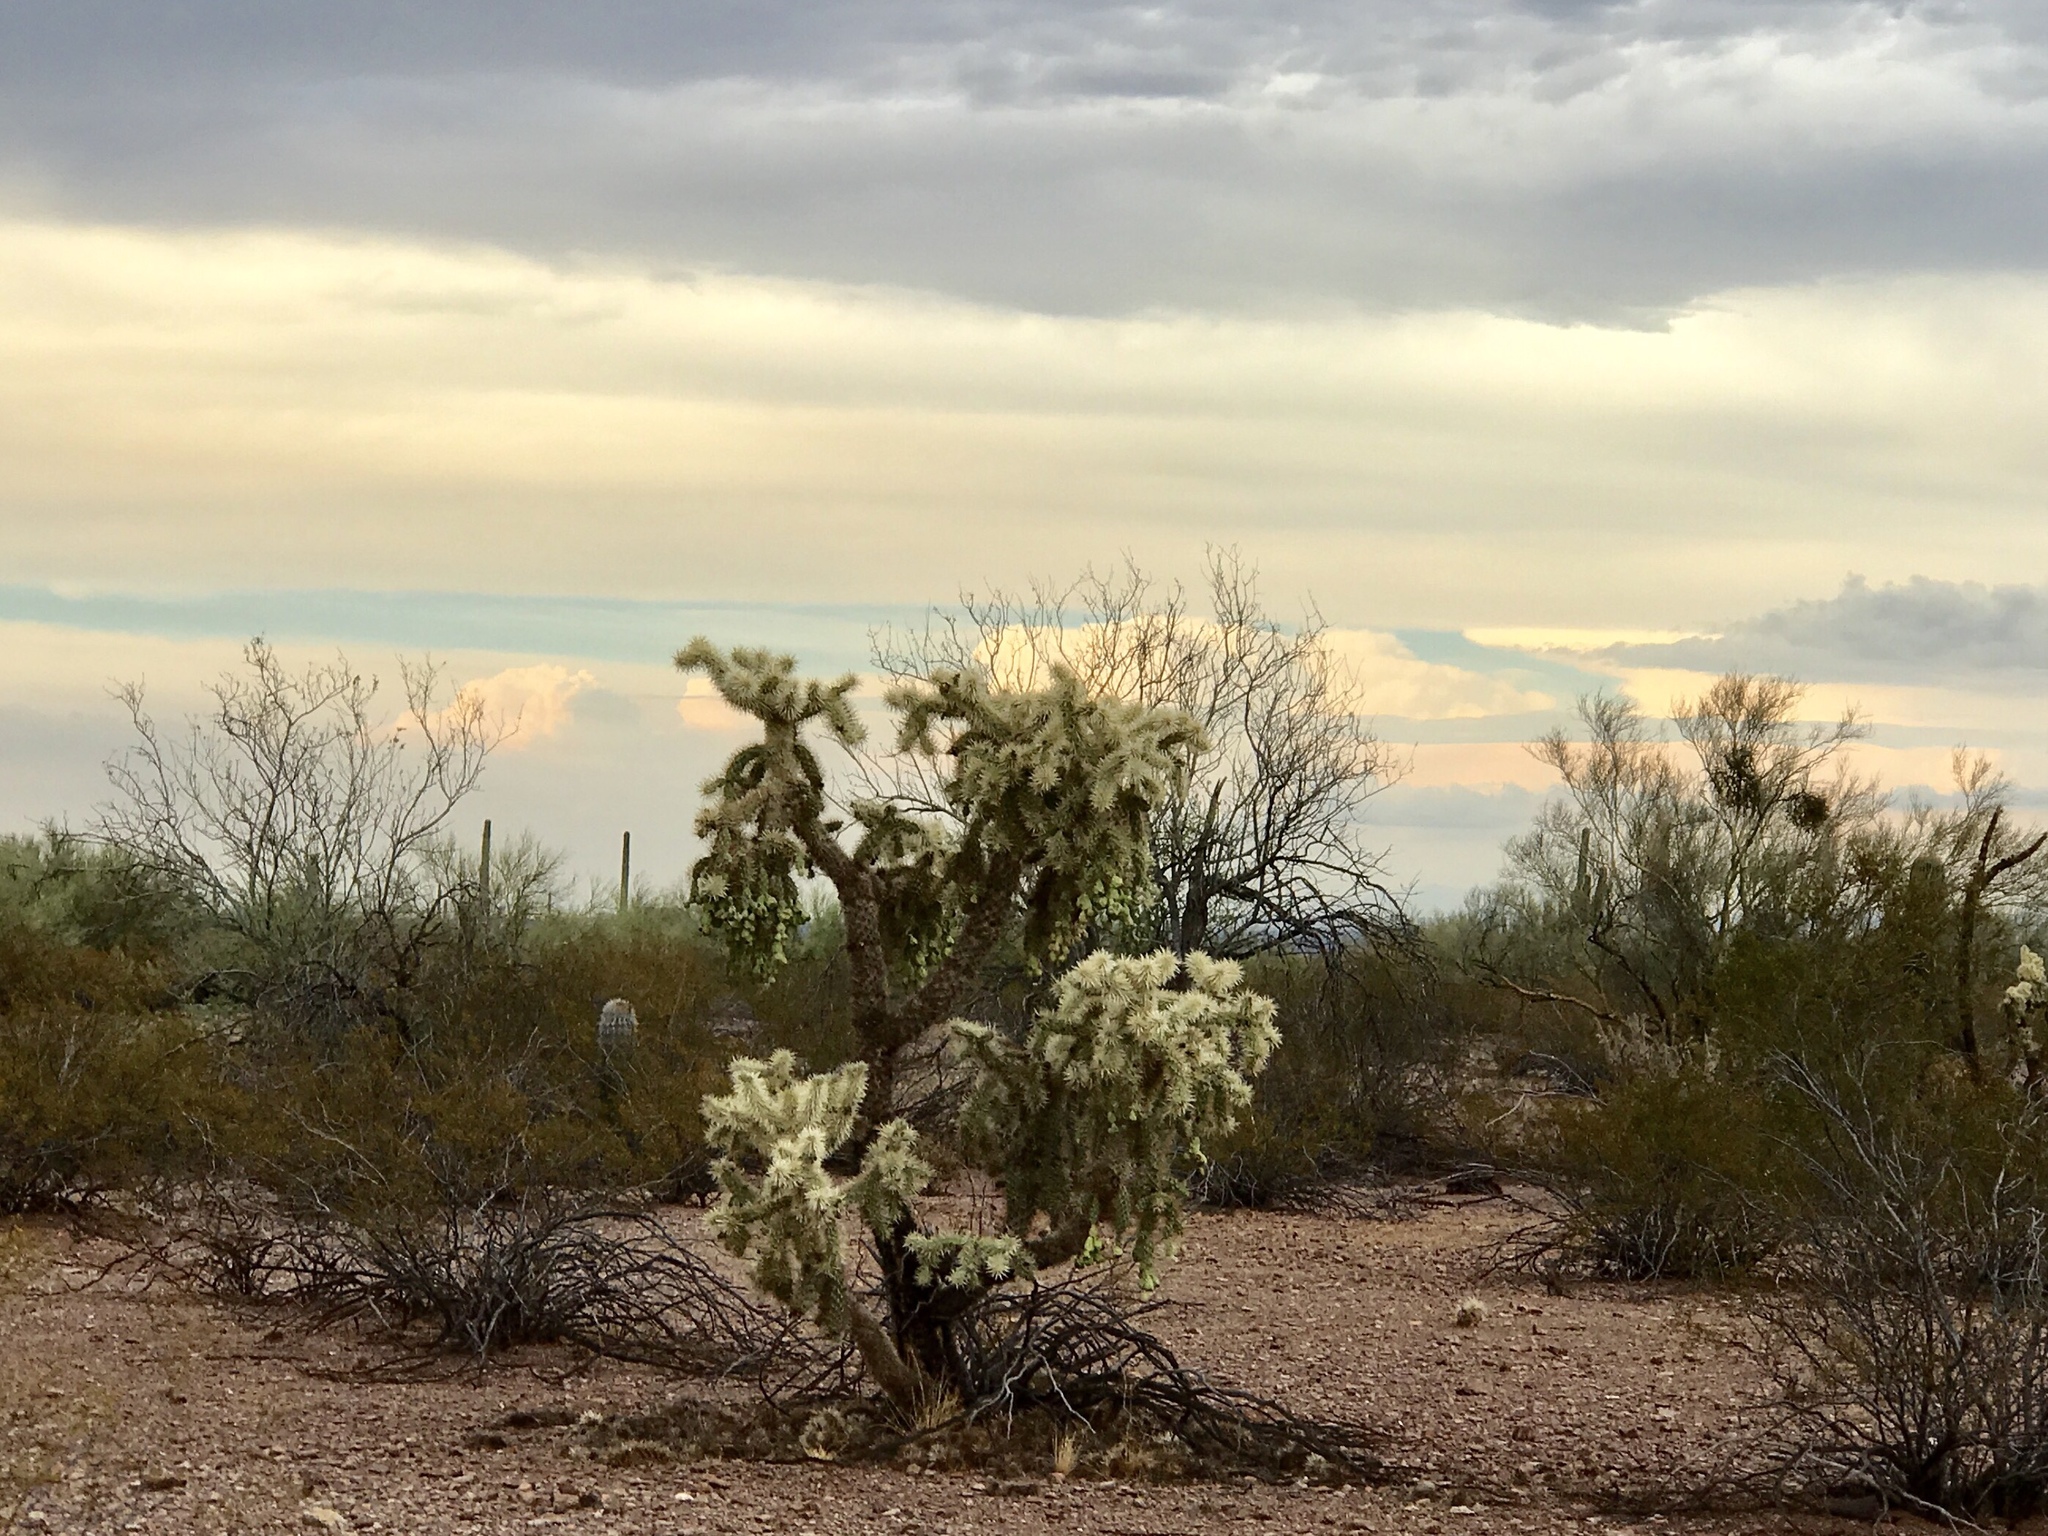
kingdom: Plantae
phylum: Tracheophyta
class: Magnoliopsida
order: Caryophyllales
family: Cactaceae
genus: Cylindropuntia
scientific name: Cylindropuntia fulgida
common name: Jumping cholla
